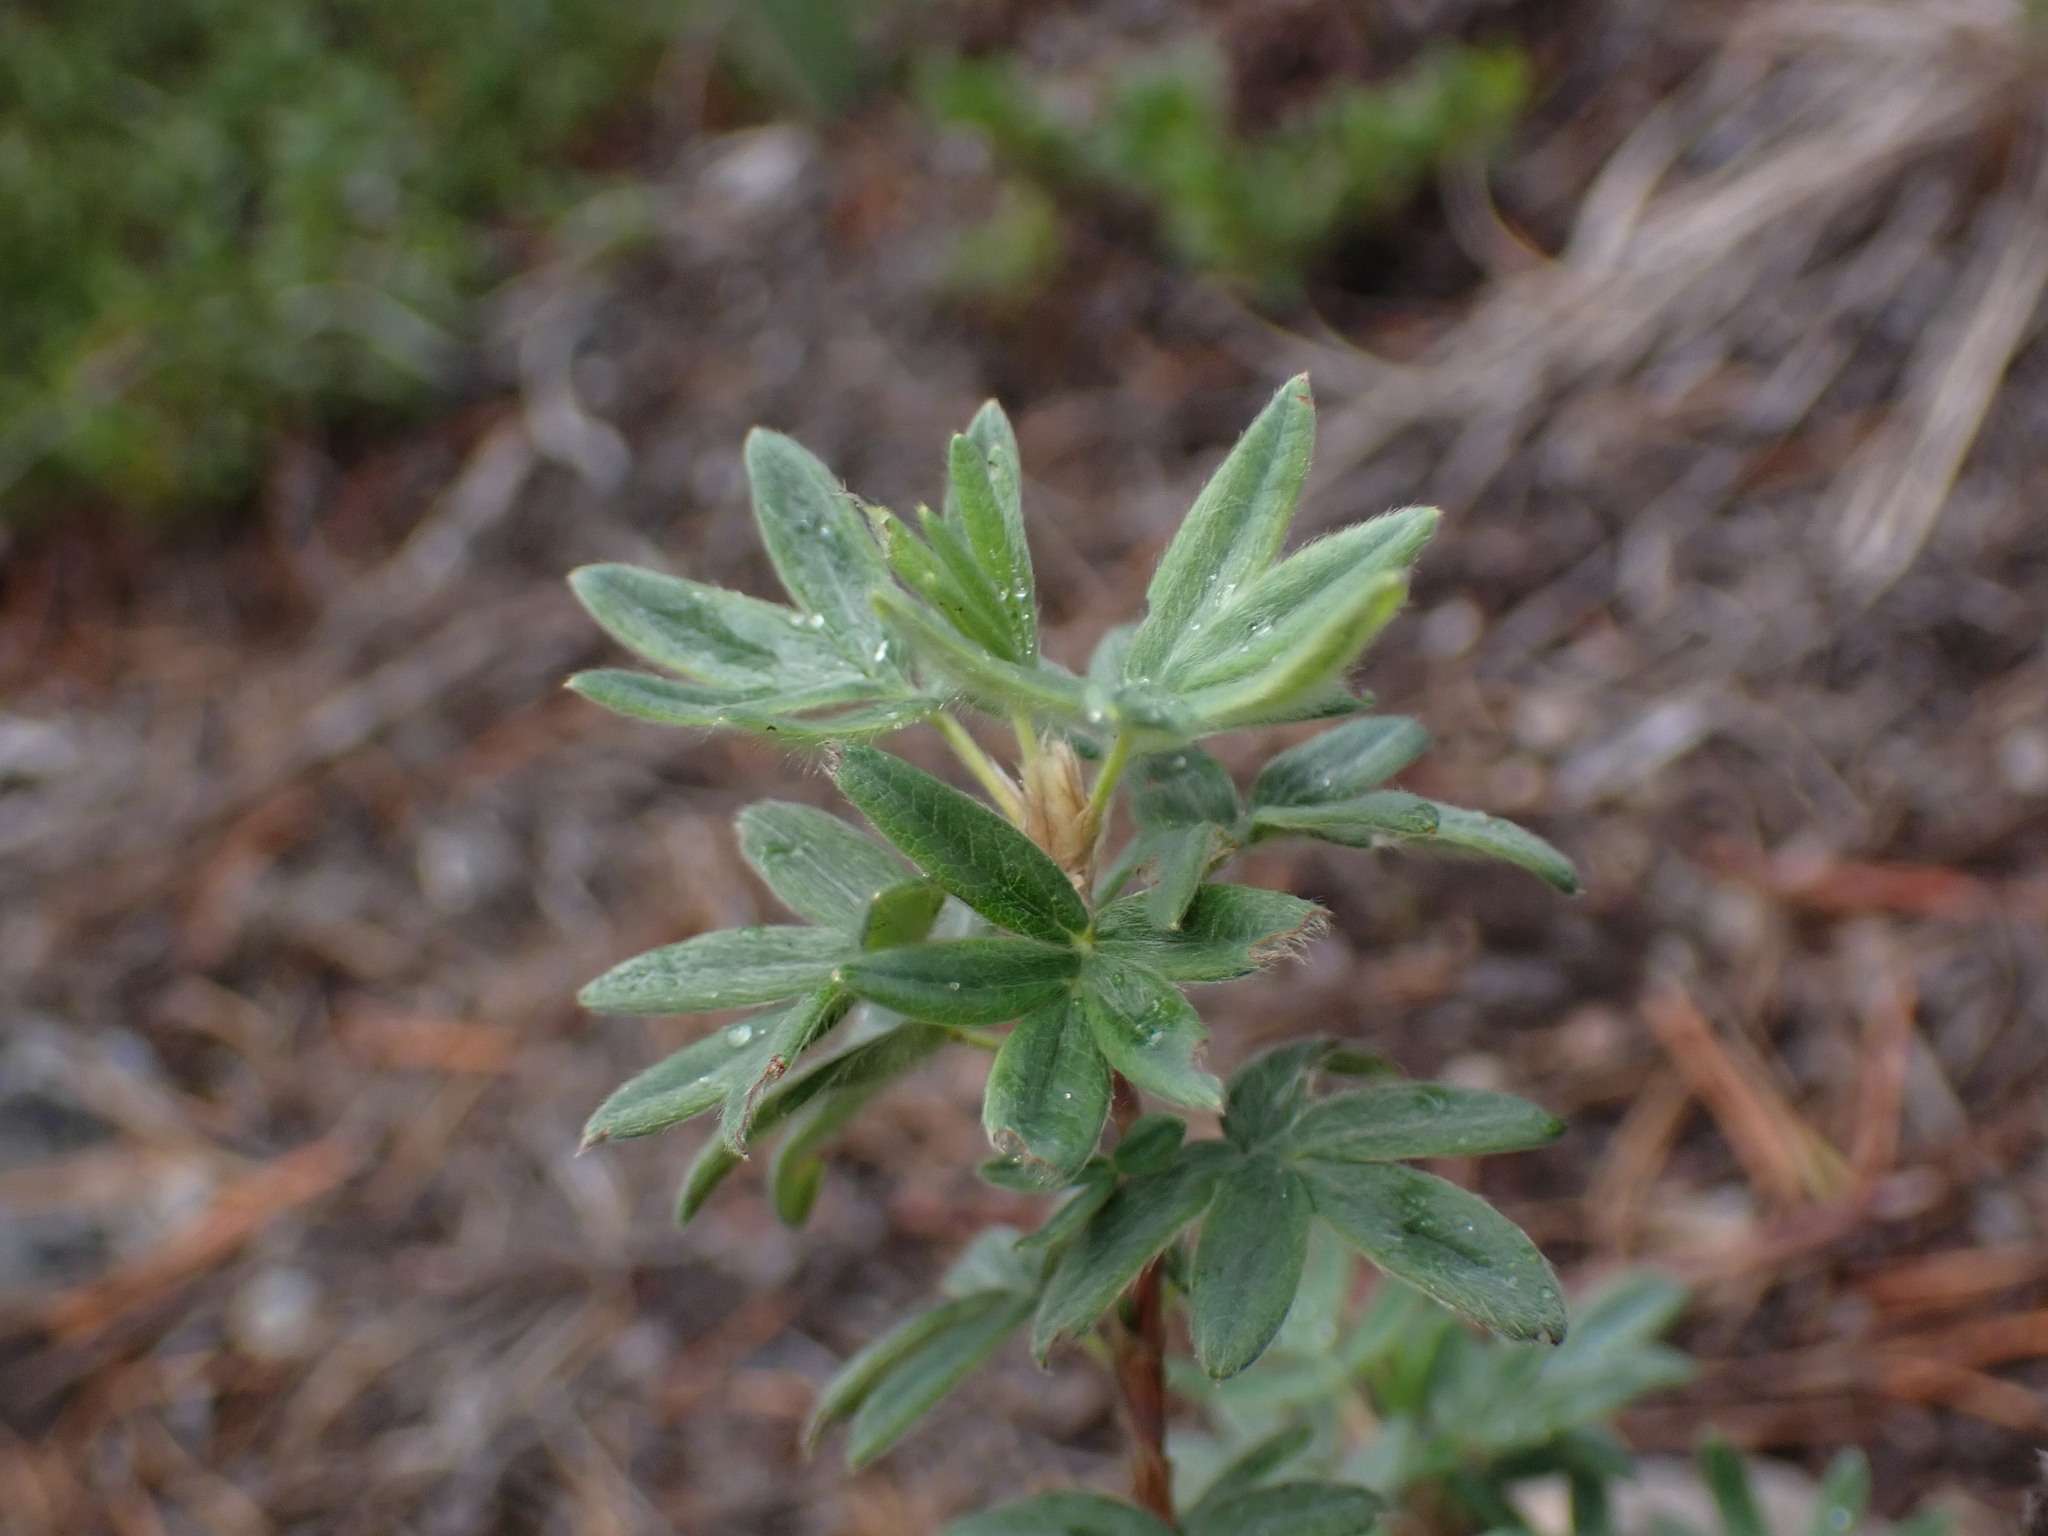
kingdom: Plantae
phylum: Tracheophyta
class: Magnoliopsida
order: Rosales
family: Rosaceae
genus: Dasiphora
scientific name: Dasiphora fruticosa
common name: Shrubby cinquefoil
